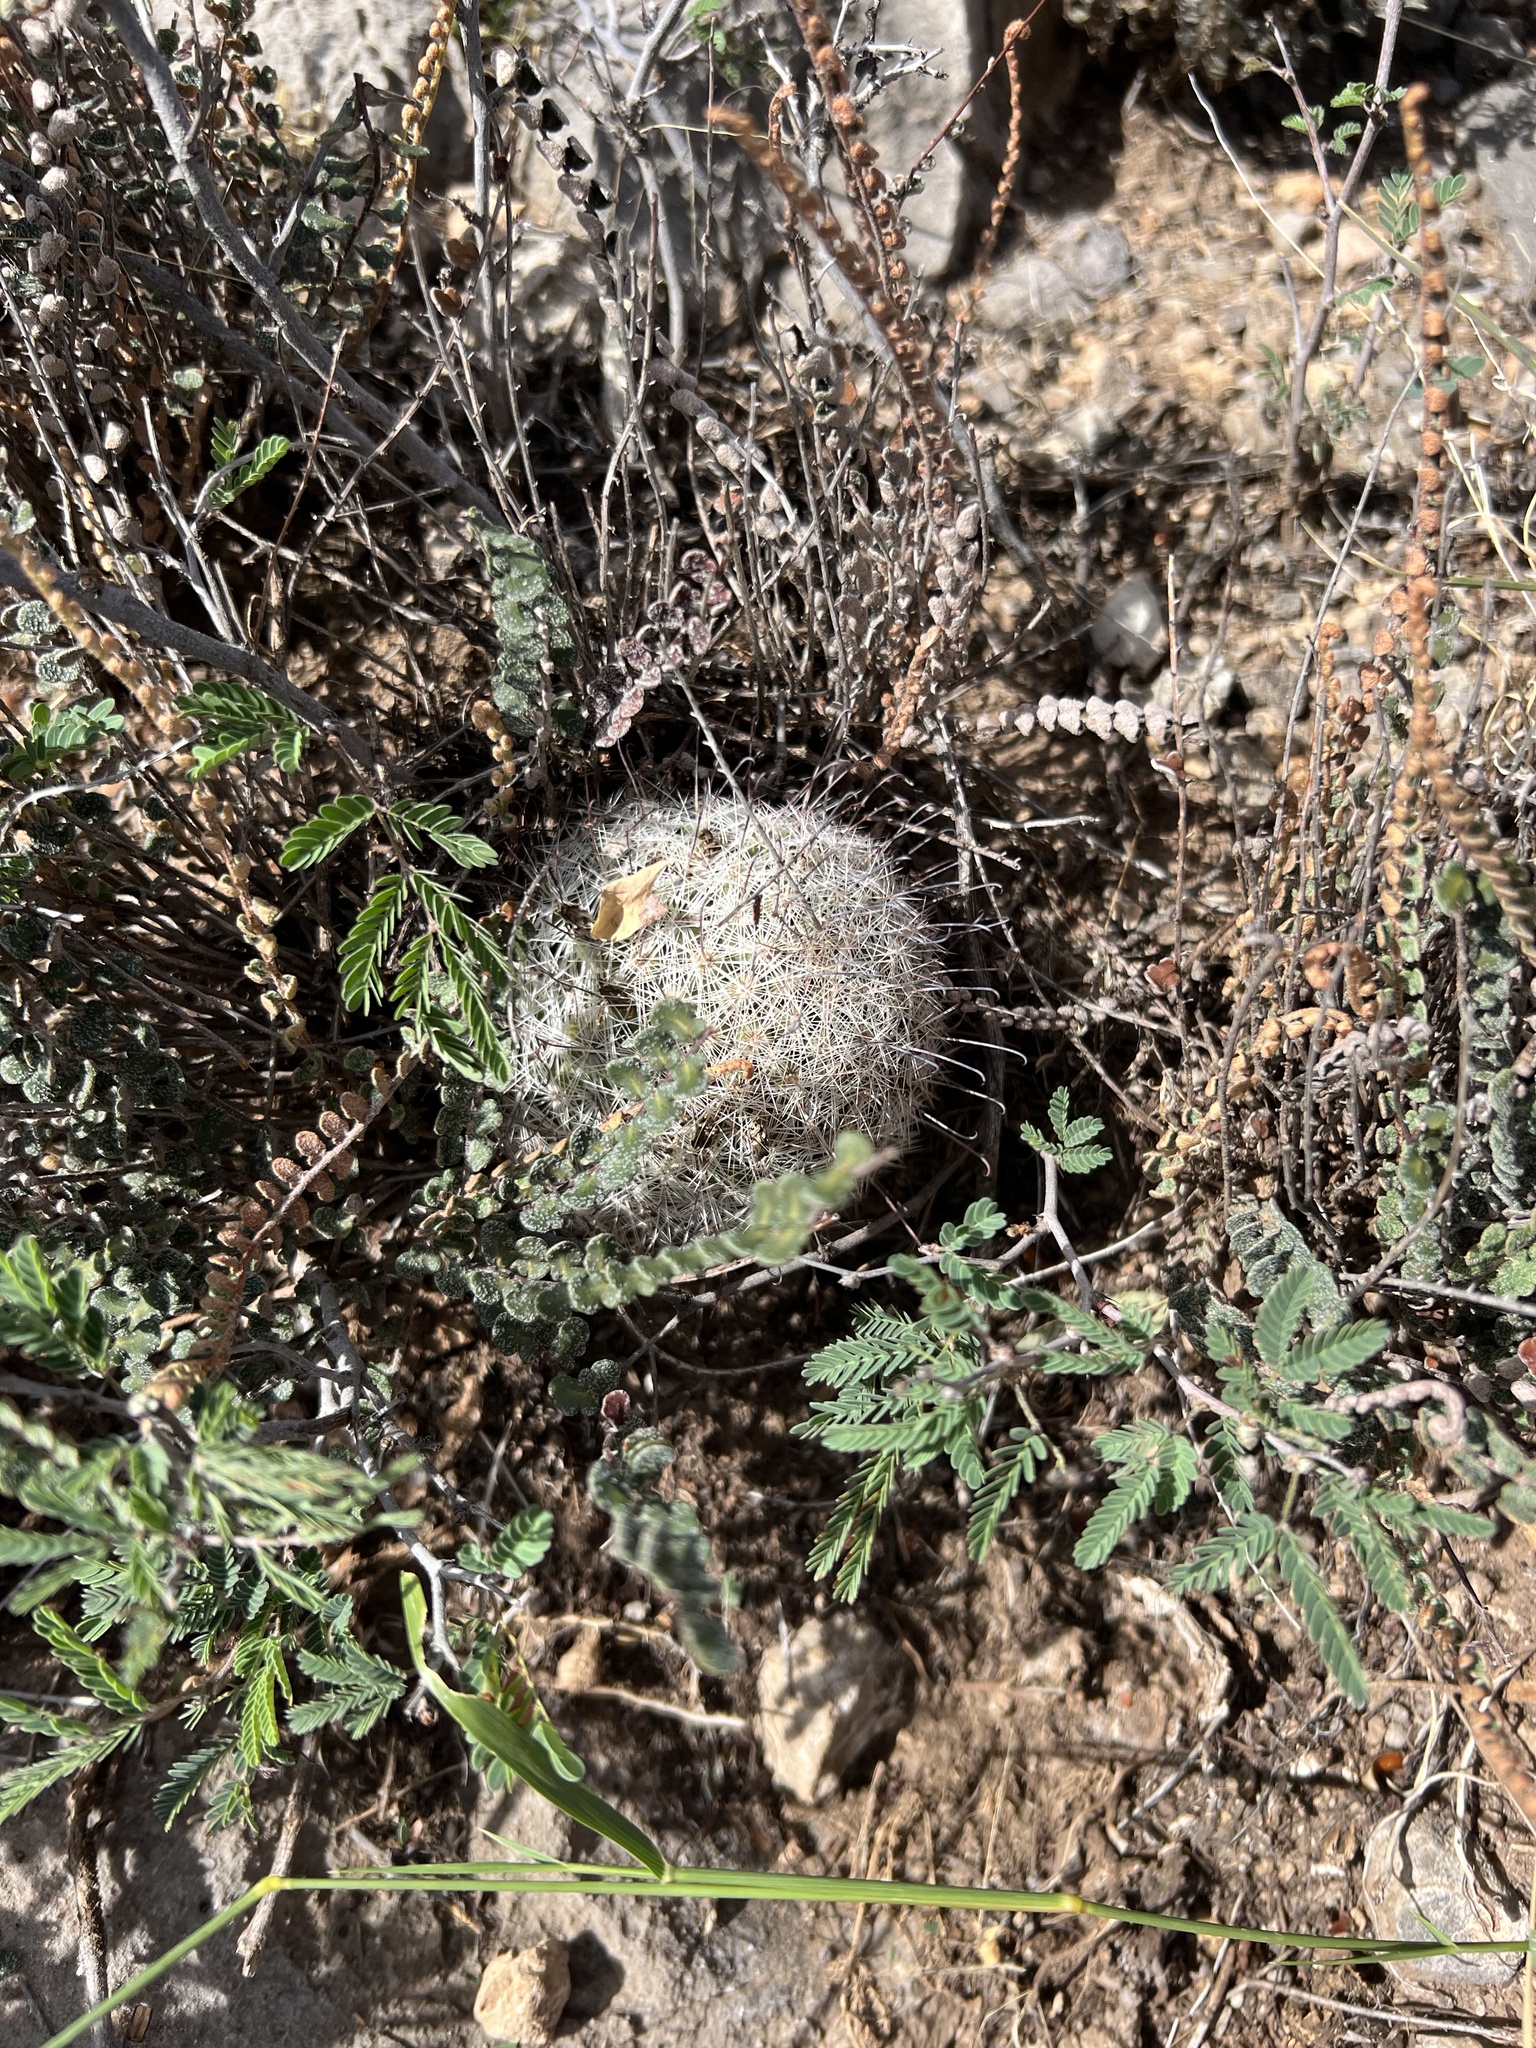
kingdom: Plantae
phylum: Tracheophyta
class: Magnoliopsida
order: Caryophyllales
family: Cactaceae
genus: Cochemiea
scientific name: Cochemiea grahamii
